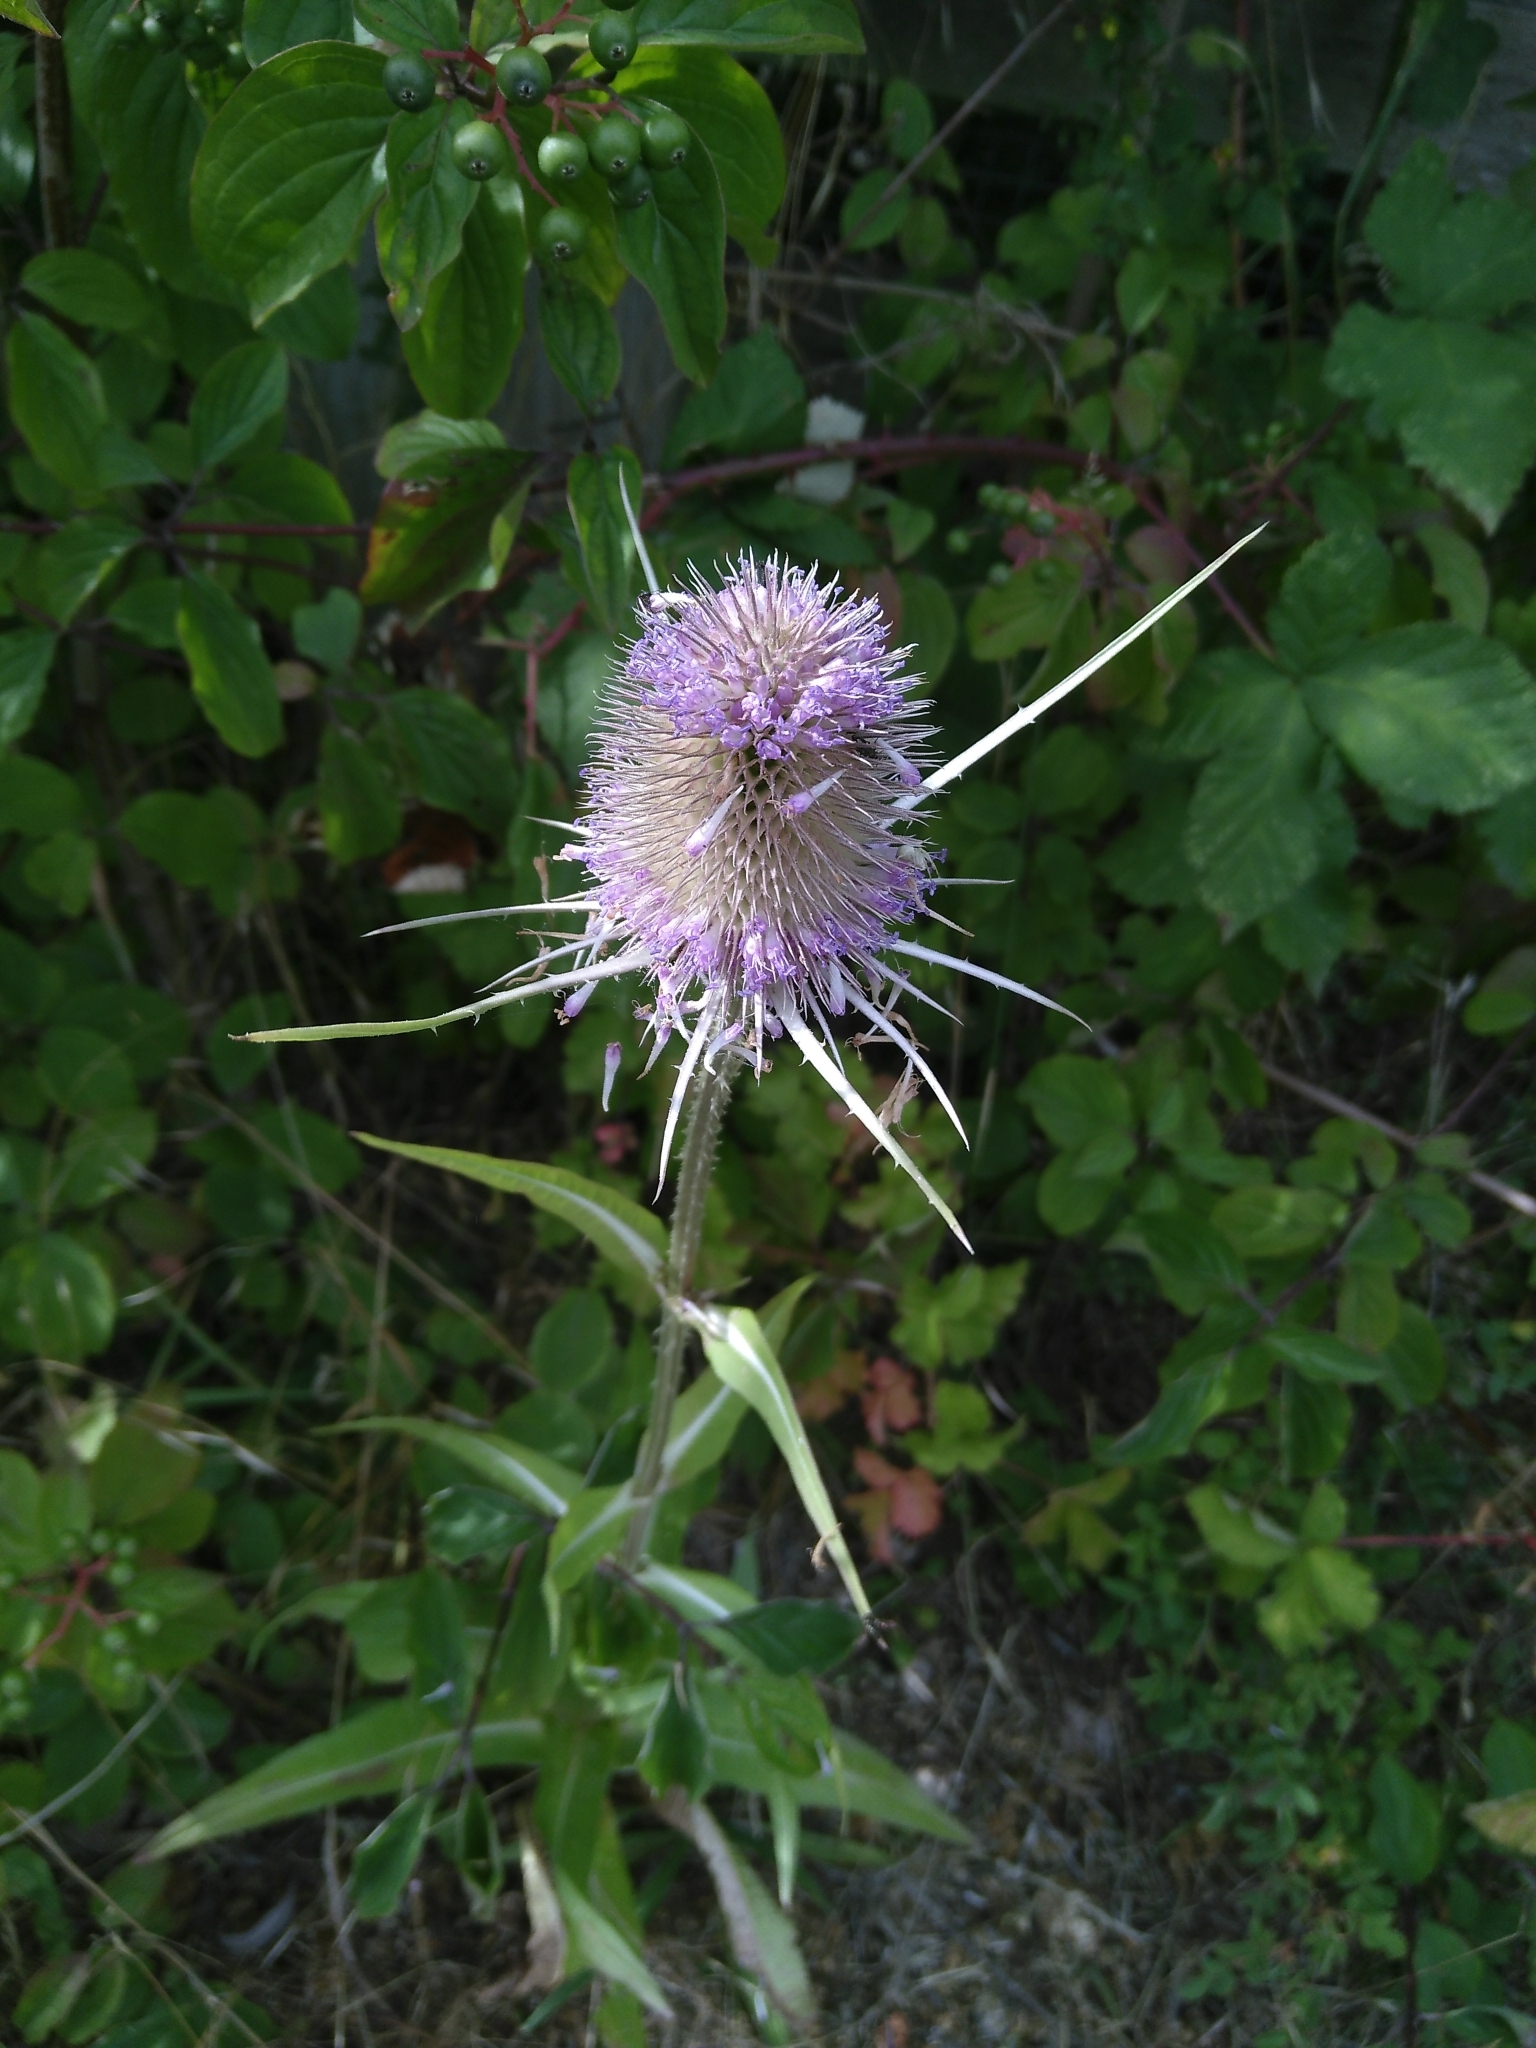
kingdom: Plantae
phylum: Tracheophyta
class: Magnoliopsida
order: Dipsacales
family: Caprifoliaceae
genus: Dipsacus
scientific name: Dipsacus fullonum
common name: Teasel
